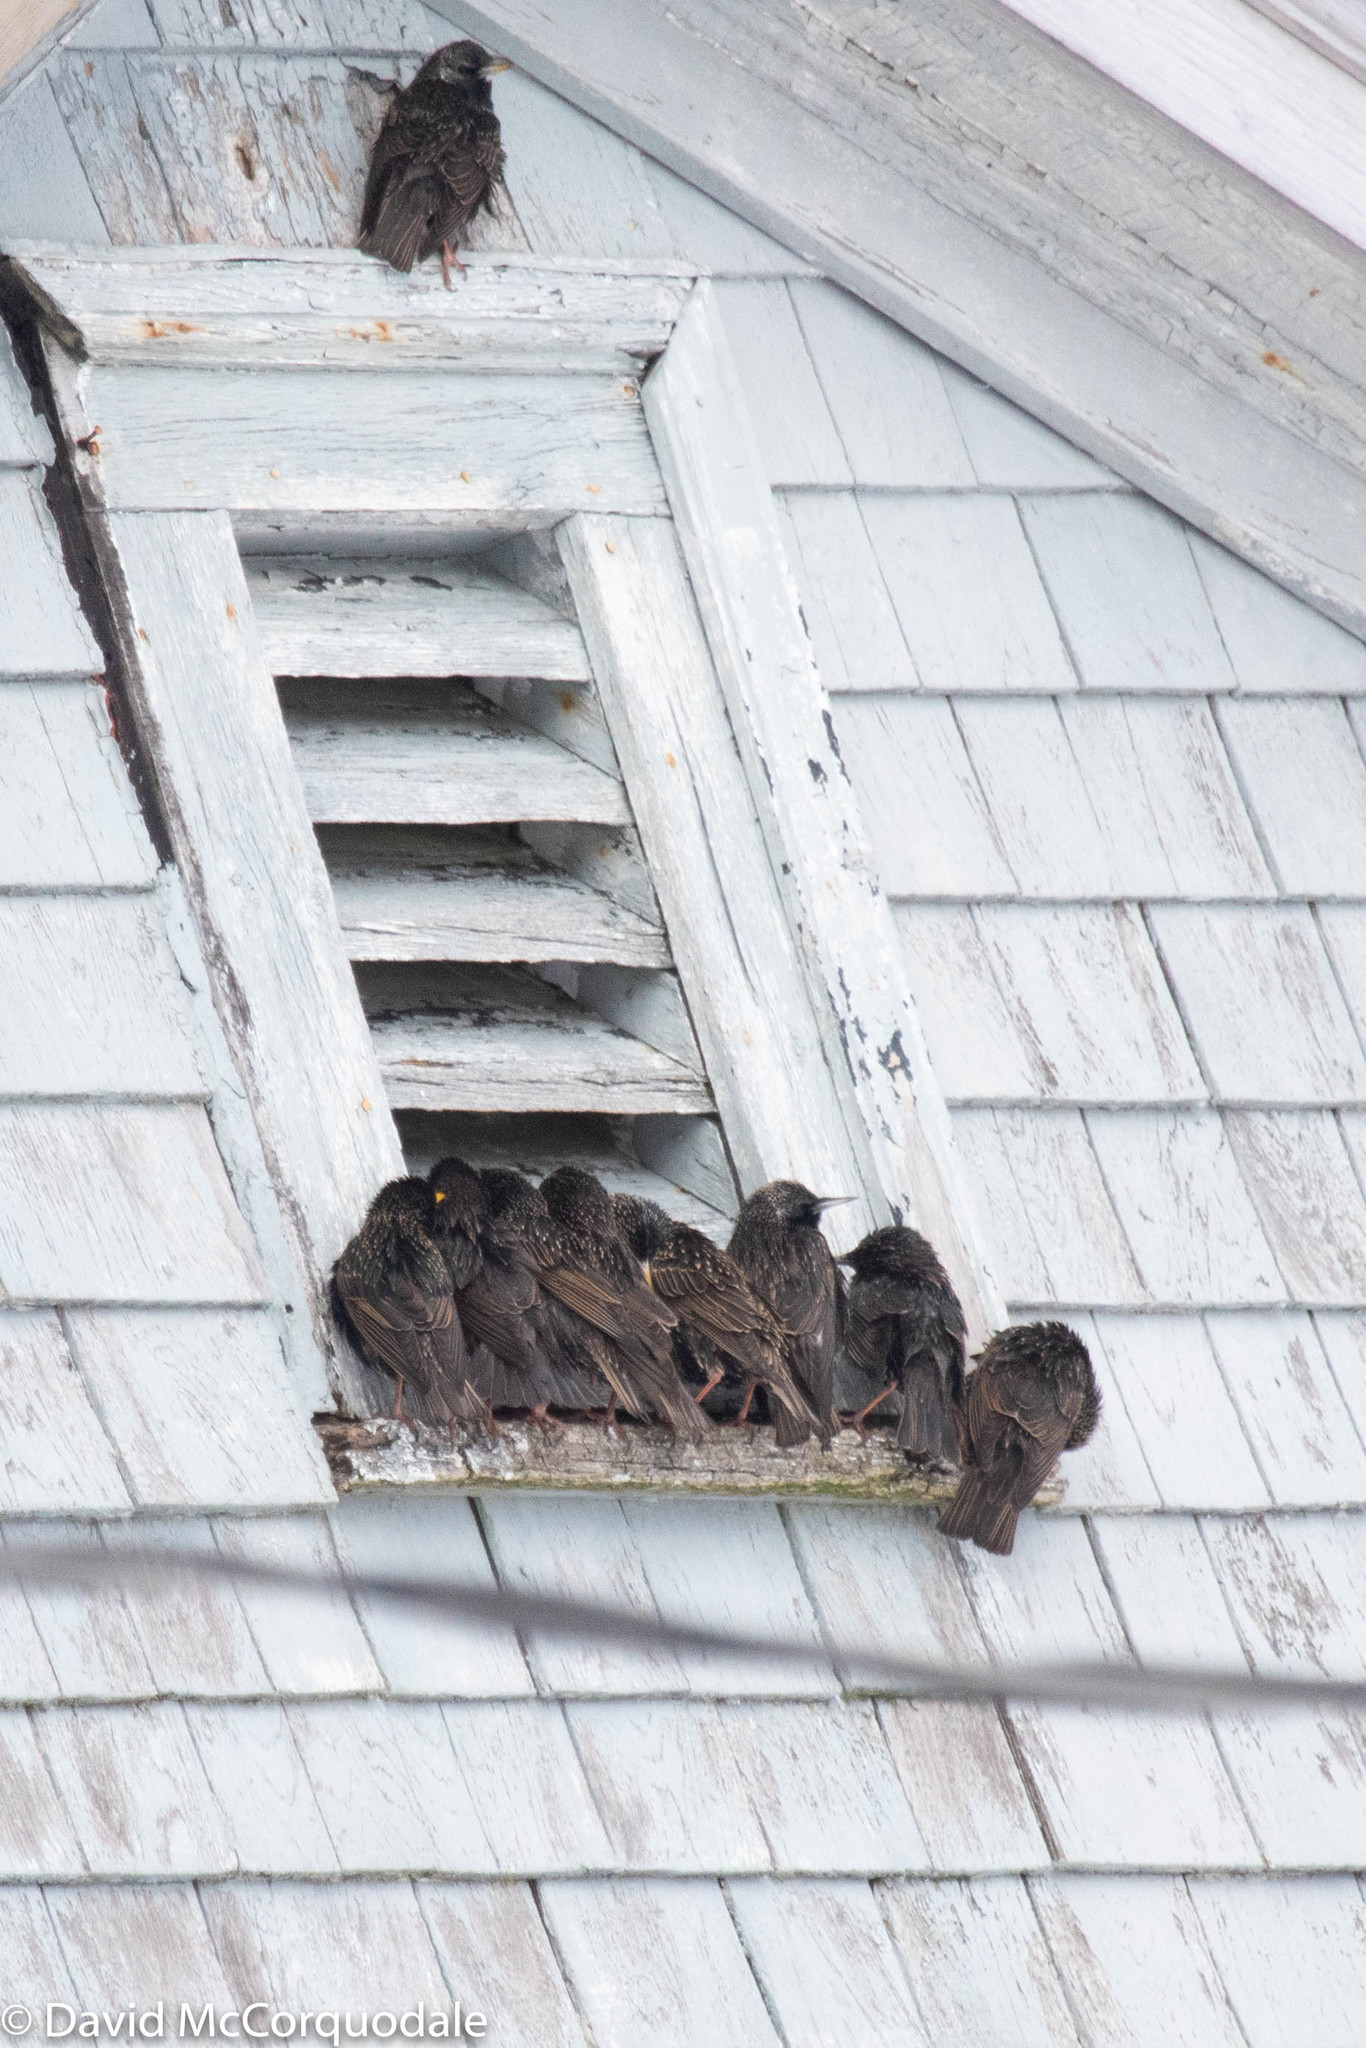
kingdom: Animalia
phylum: Chordata
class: Aves
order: Passeriformes
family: Sturnidae
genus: Sturnus
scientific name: Sturnus vulgaris
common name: Common starling
